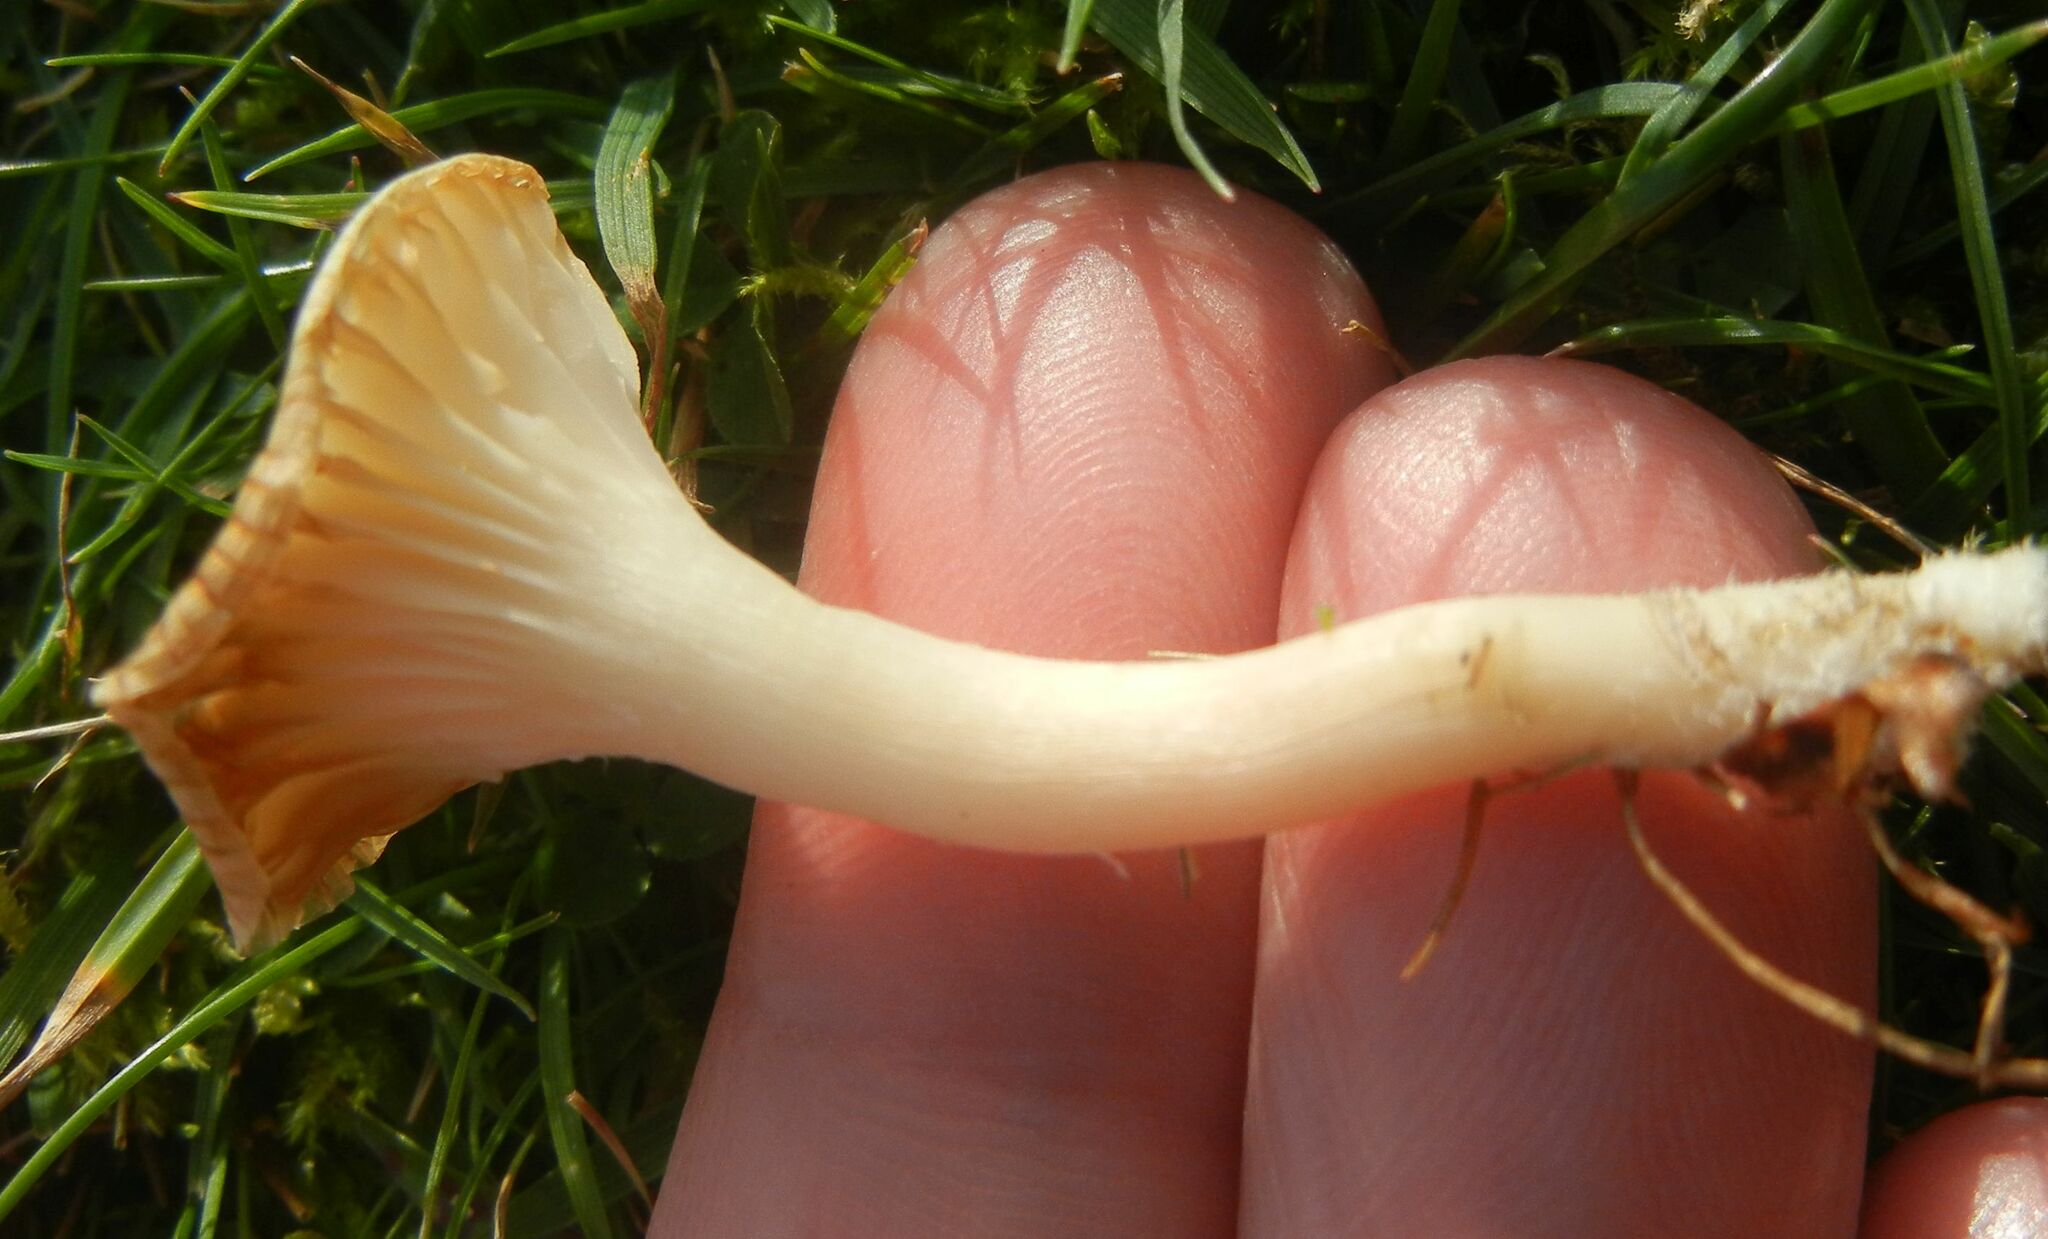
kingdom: Fungi
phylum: Basidiomycota
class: Agaricomycetes
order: Agaricales
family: Hygrophoraceae
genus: Cuphophyllus
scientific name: Cuphophyllus virgineus
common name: Snowy waxcap
